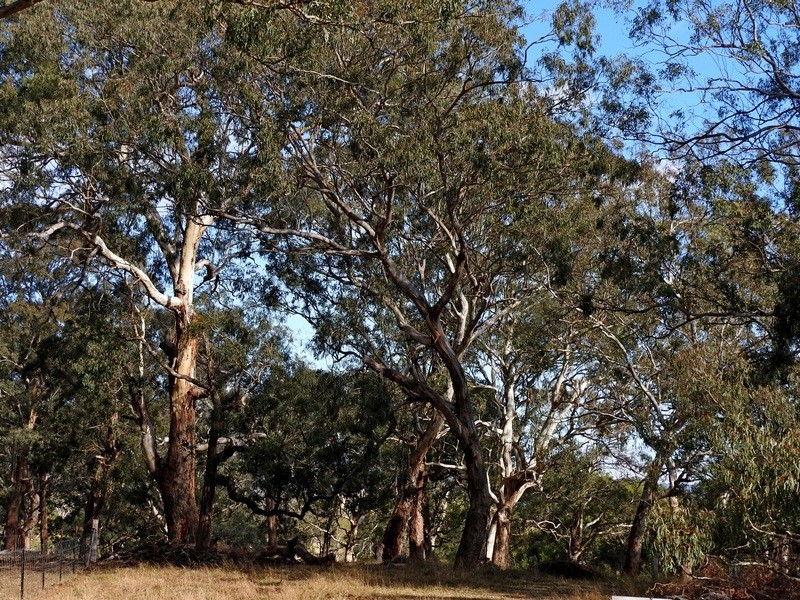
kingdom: Plantae
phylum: Tracheophyta
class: Magnoliopsida
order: Myrtales
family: Myrtaceae
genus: Eucalyptus
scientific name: Eucalyptus melliodora
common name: Yellow ironbox
